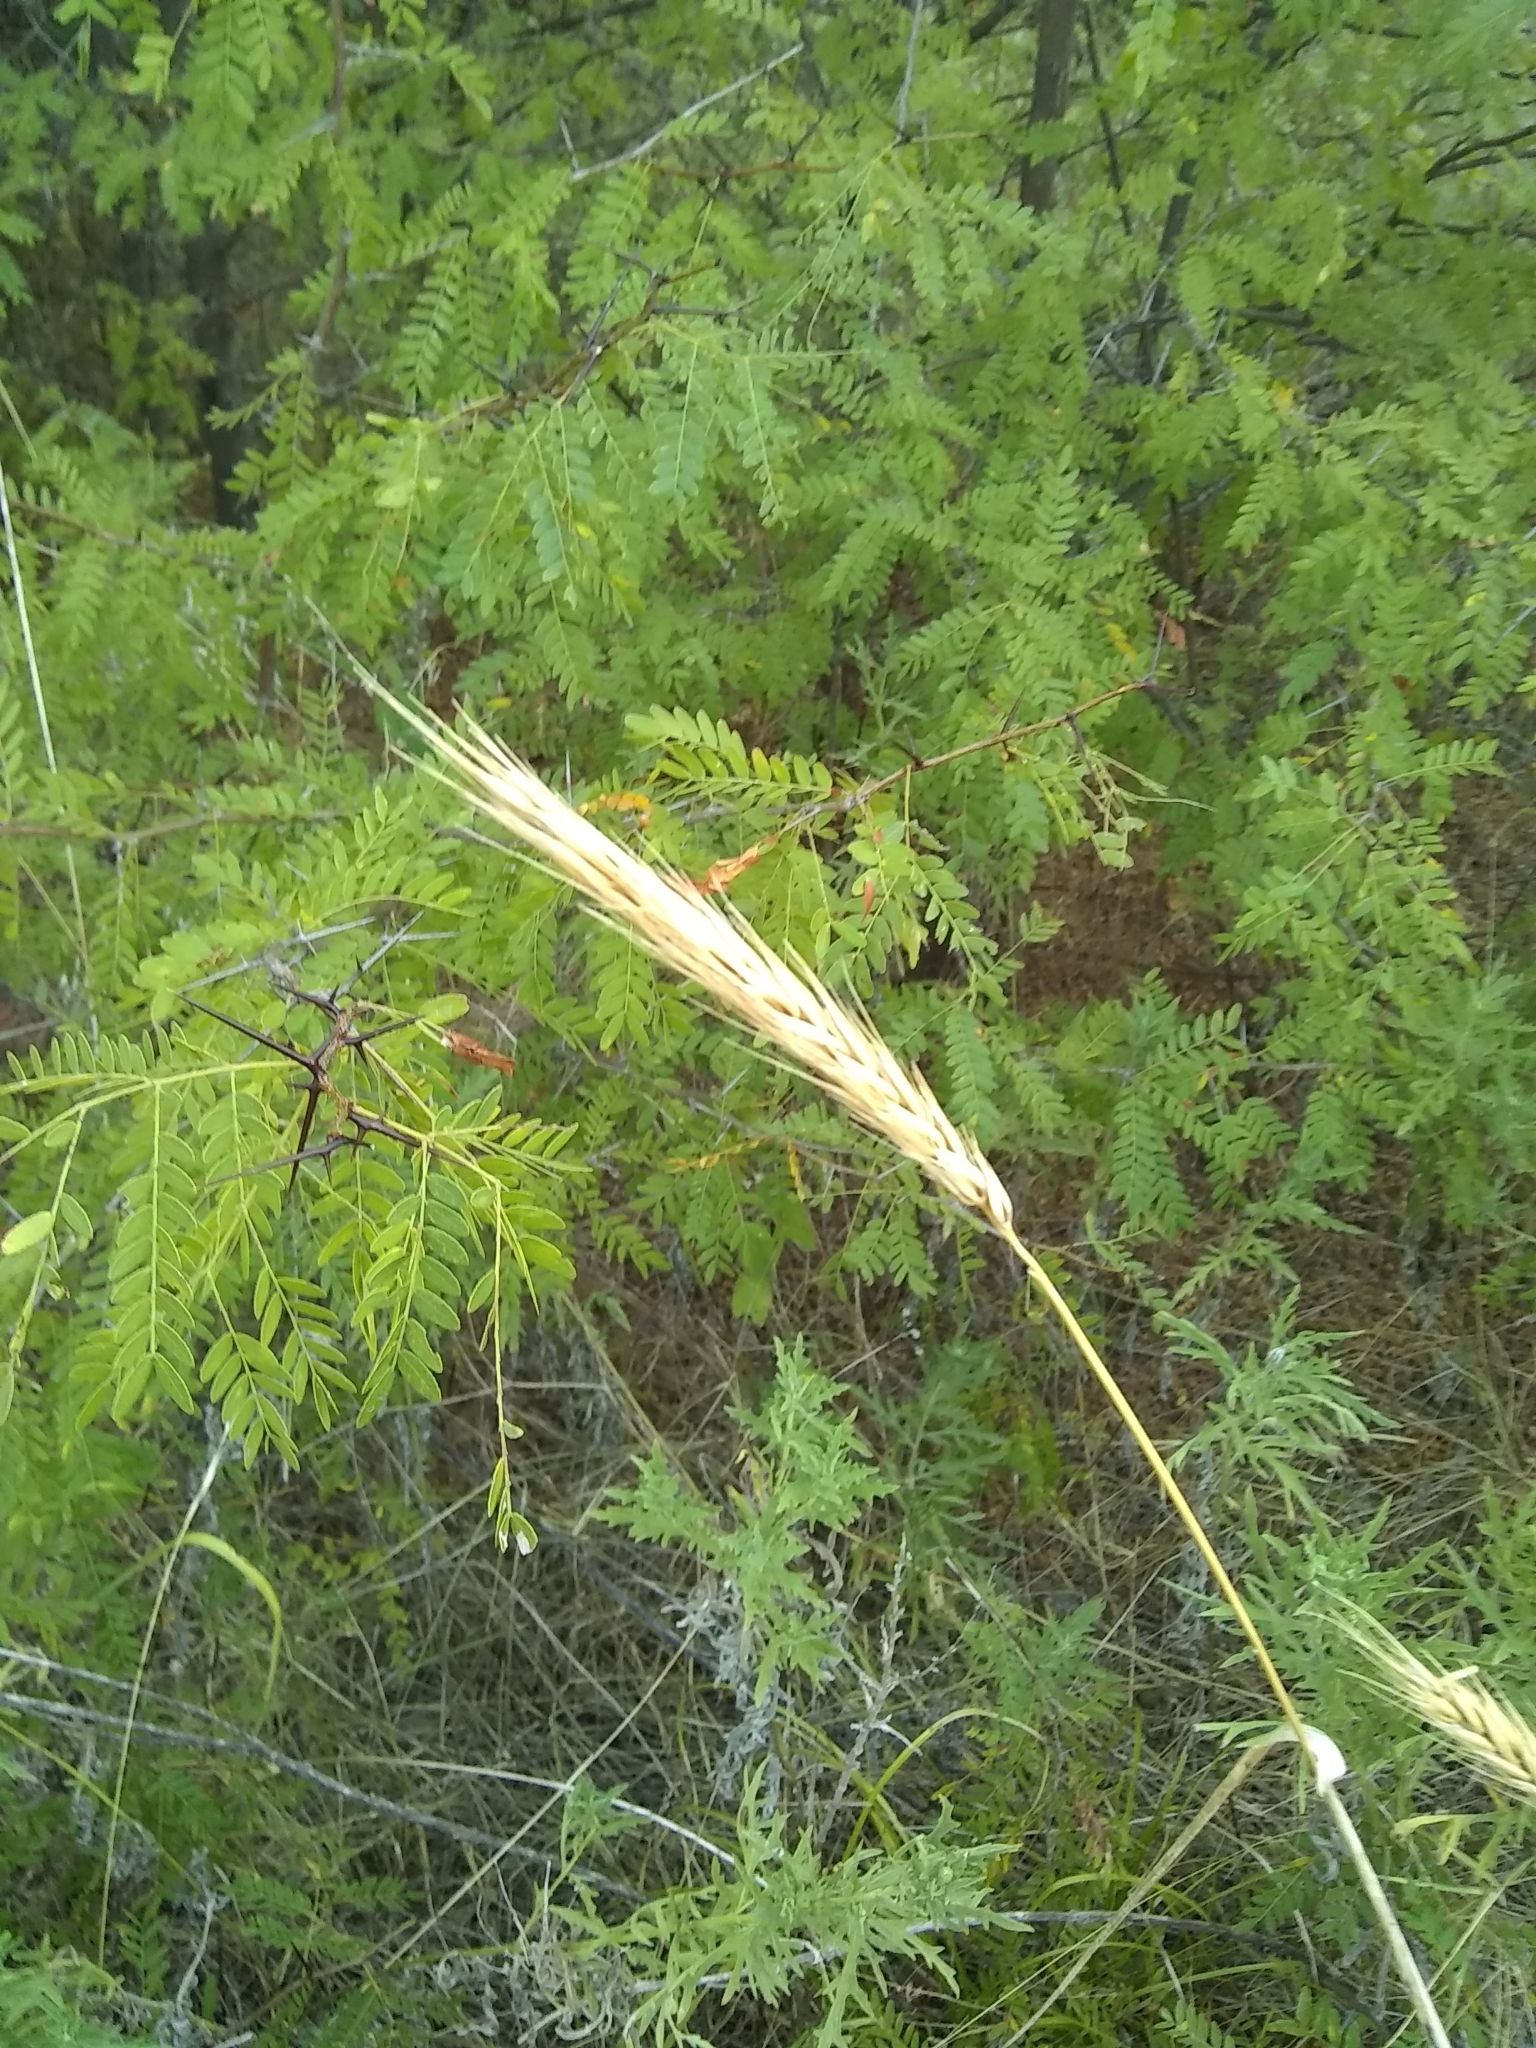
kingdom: Plantae
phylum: Tracheophyta
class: Liliopsida
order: Poales
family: Poaceae
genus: Elymus
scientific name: Elymus virginicus
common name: Common eastern wildrye
